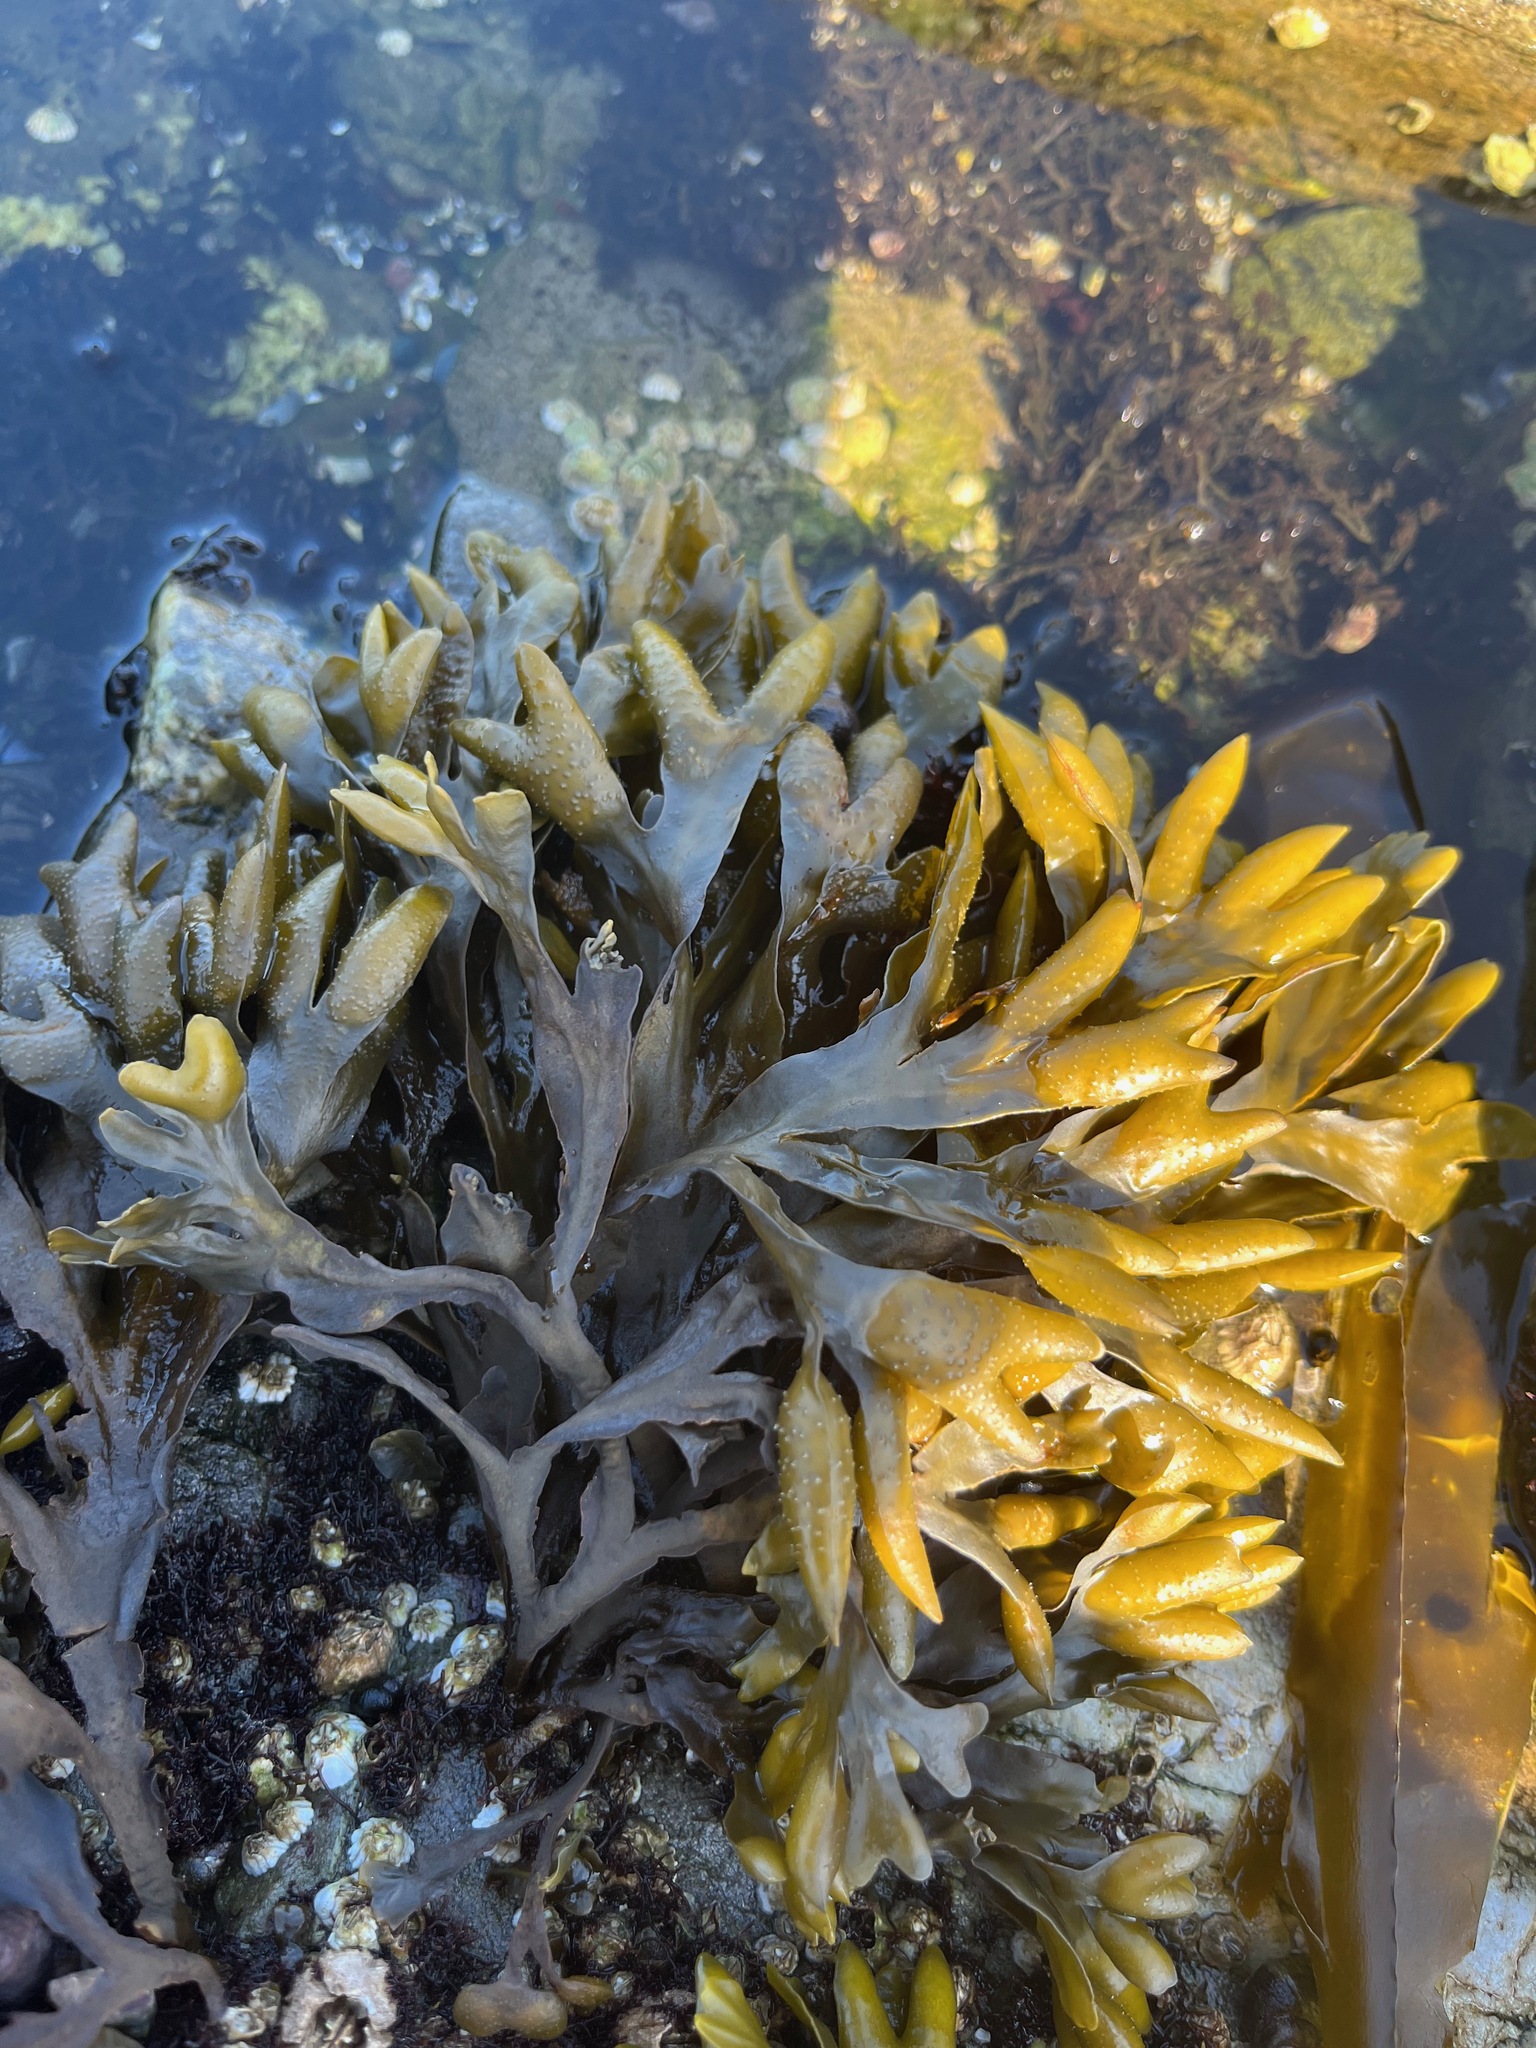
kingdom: Chromista
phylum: Ochrophyta
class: Phaeophyceae
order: Fucales
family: Fucaceae
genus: Fucus
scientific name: Fucus distichus
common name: Rockweed
